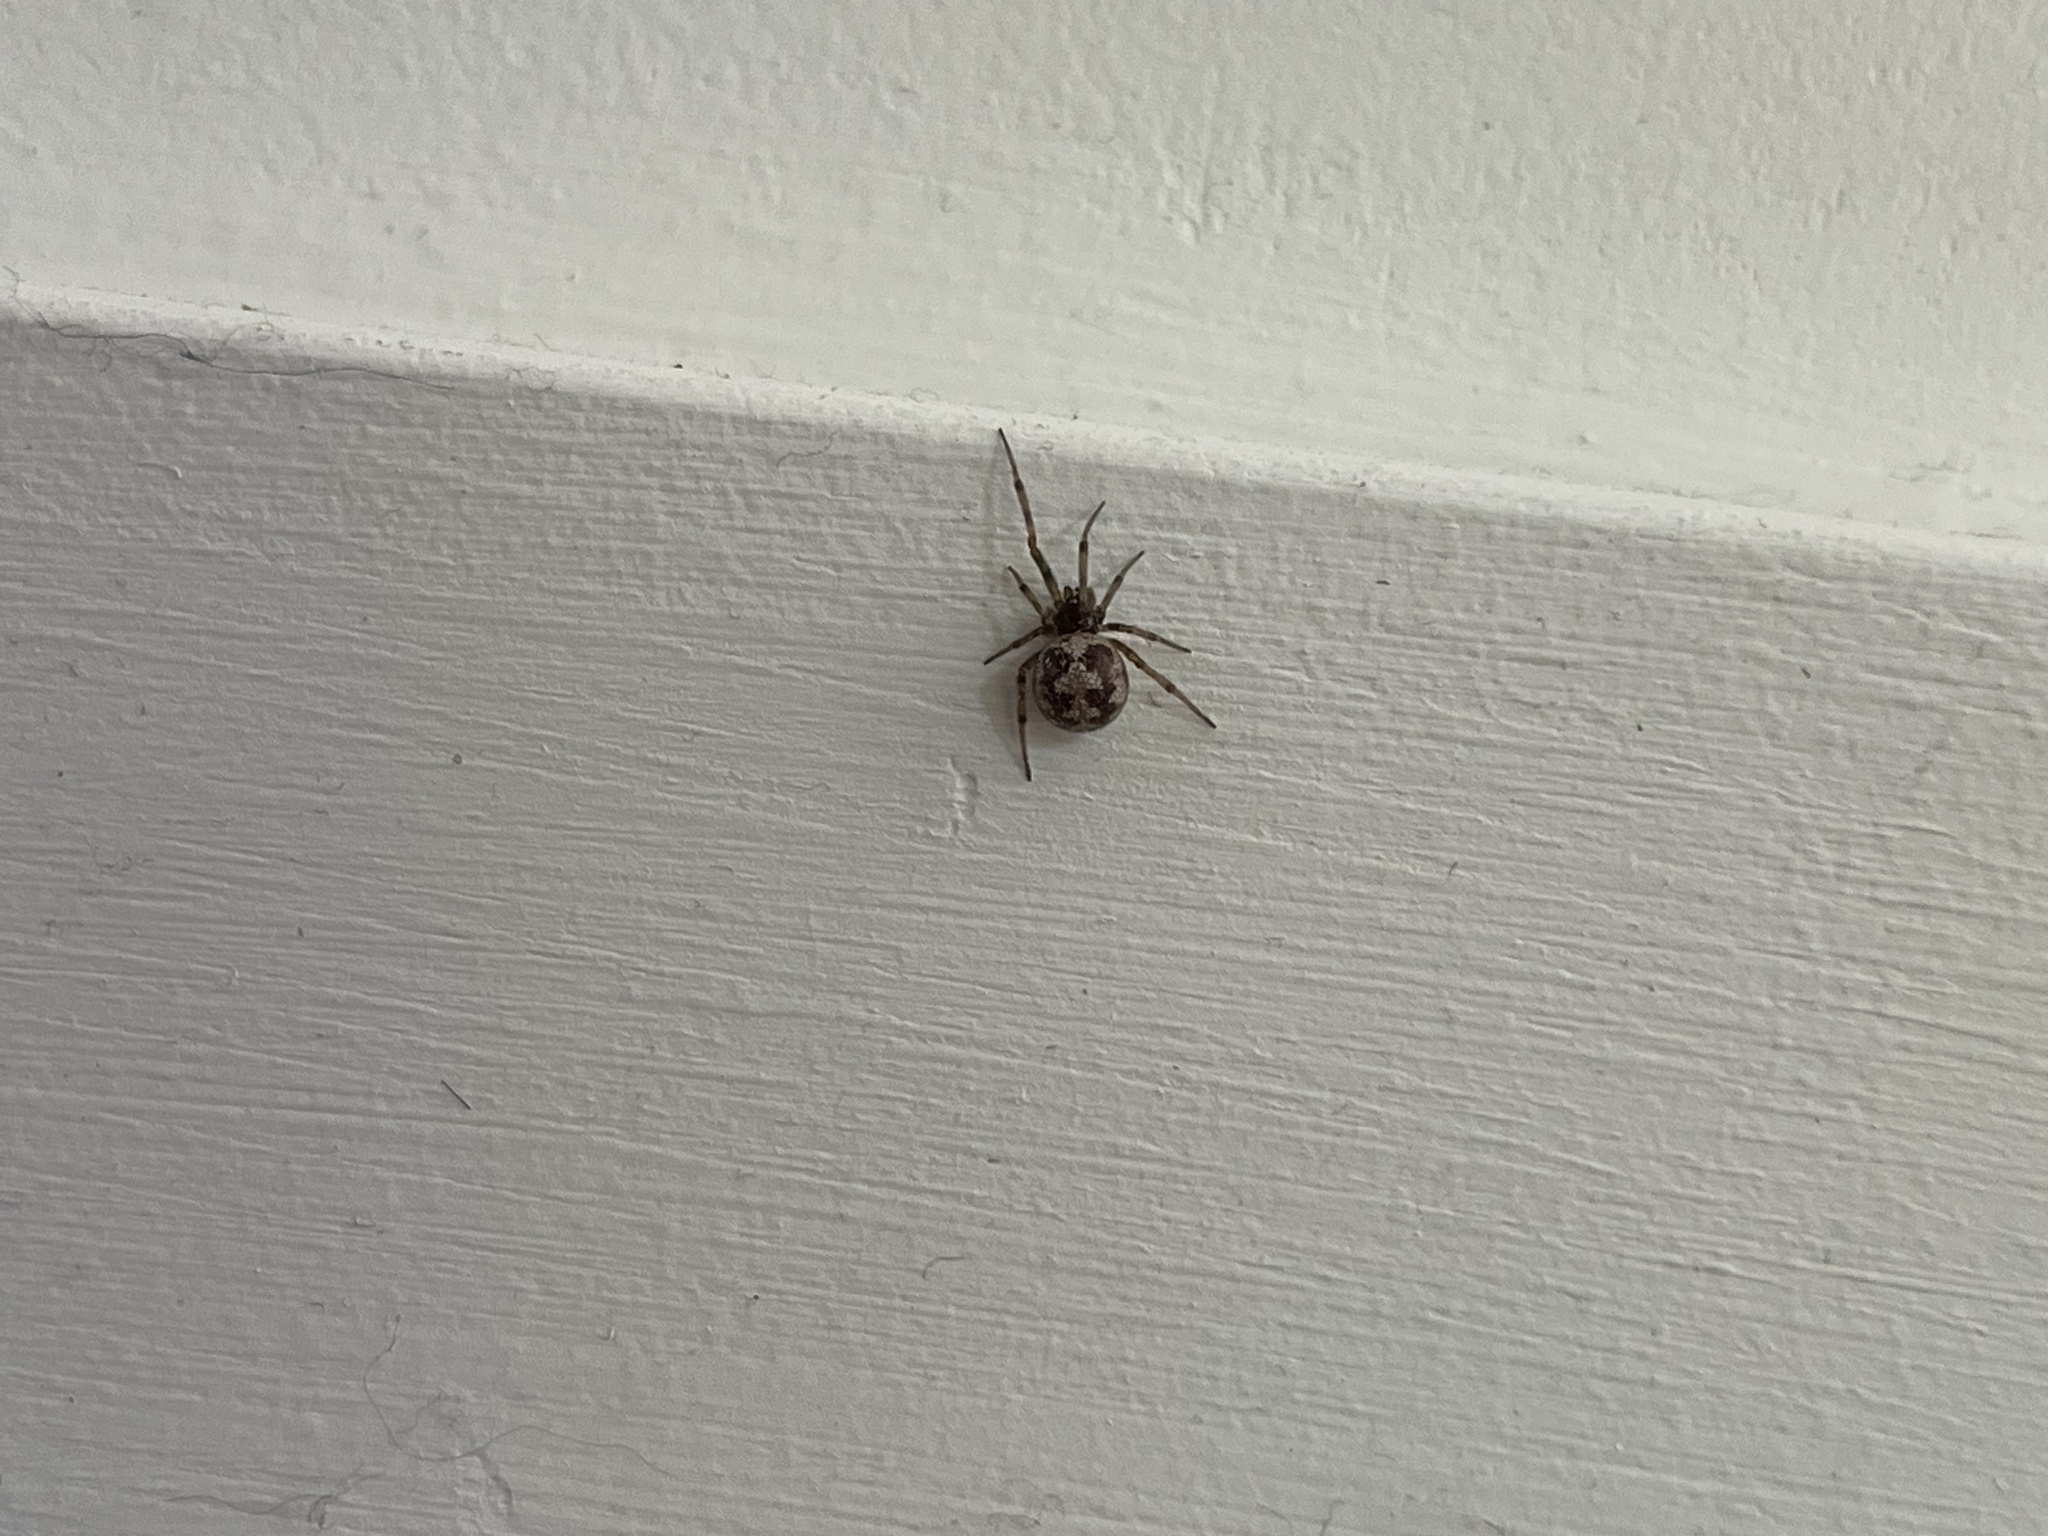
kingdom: Animalia
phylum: Arthropoda
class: Arachnida
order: Araneae
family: Theridiidae
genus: Steatoda
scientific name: Steatoda triangulosa
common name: Triangulate bud spider
